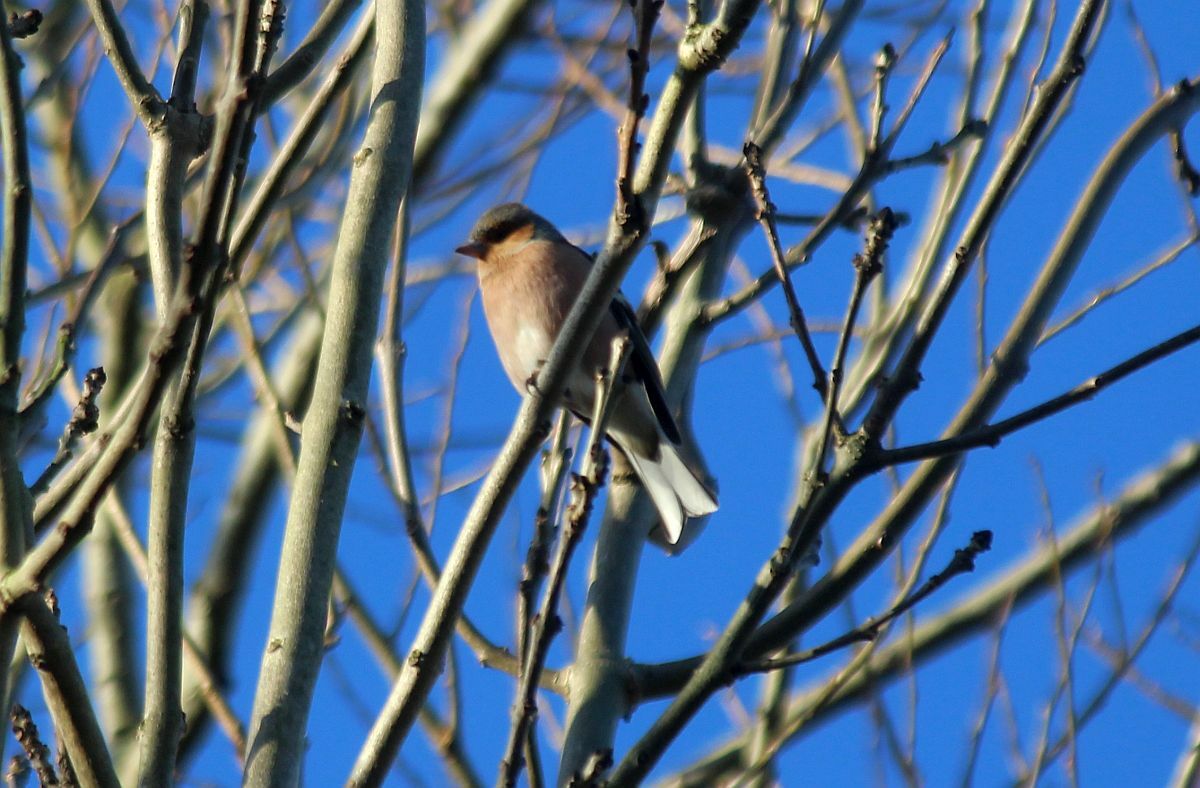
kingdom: Animalia
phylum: Chordata
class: Aves
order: Passeriformes
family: Fringillidae
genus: Fringilla
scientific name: Fringilla coelebs
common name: Common chaffinch
